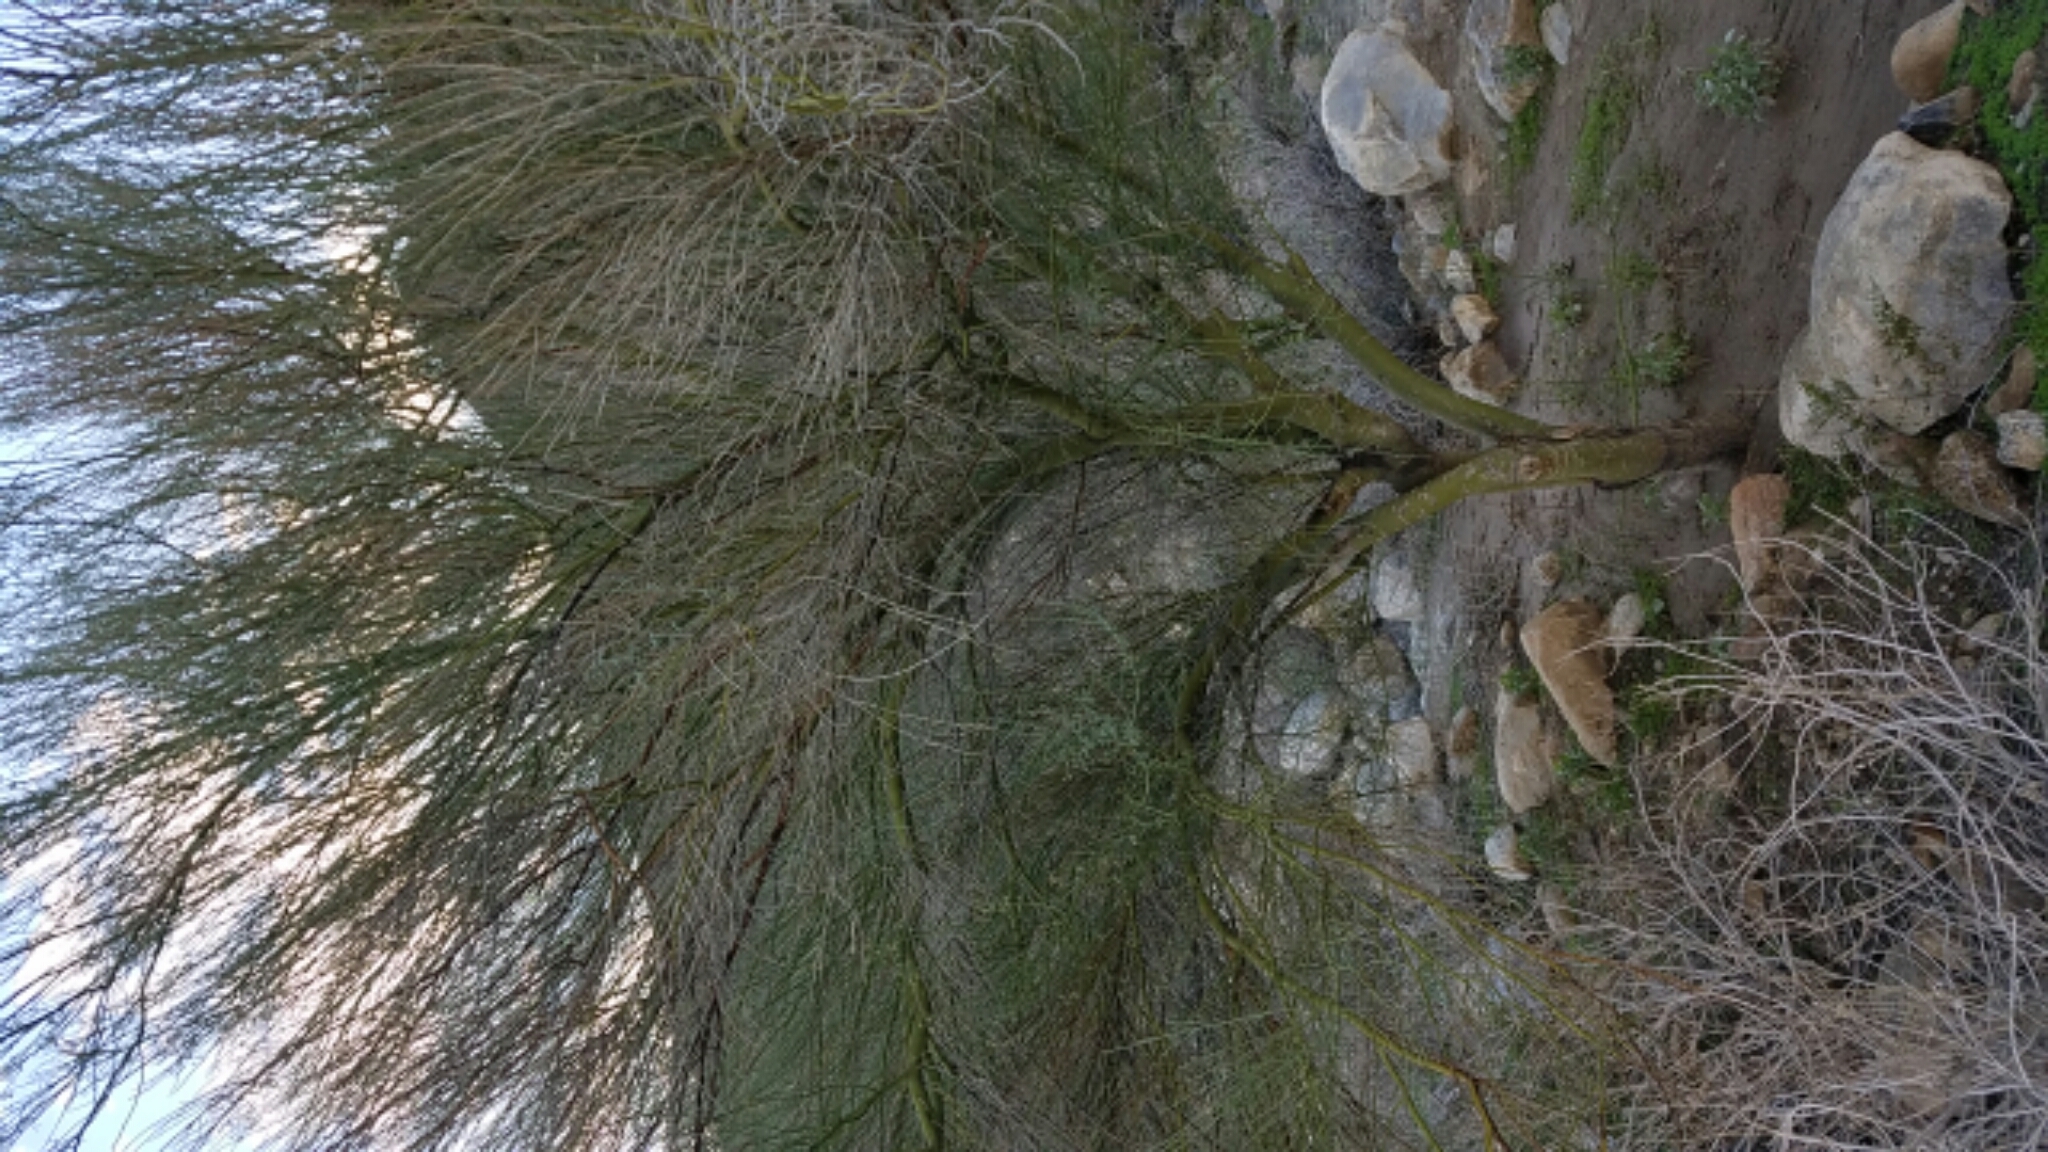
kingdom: Plantae
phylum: Tracheophyta
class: Magnoliopsida
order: Fabales
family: Fabaceae
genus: Parkinsonia
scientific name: Parkinsonia florida
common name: Blue paloverde
